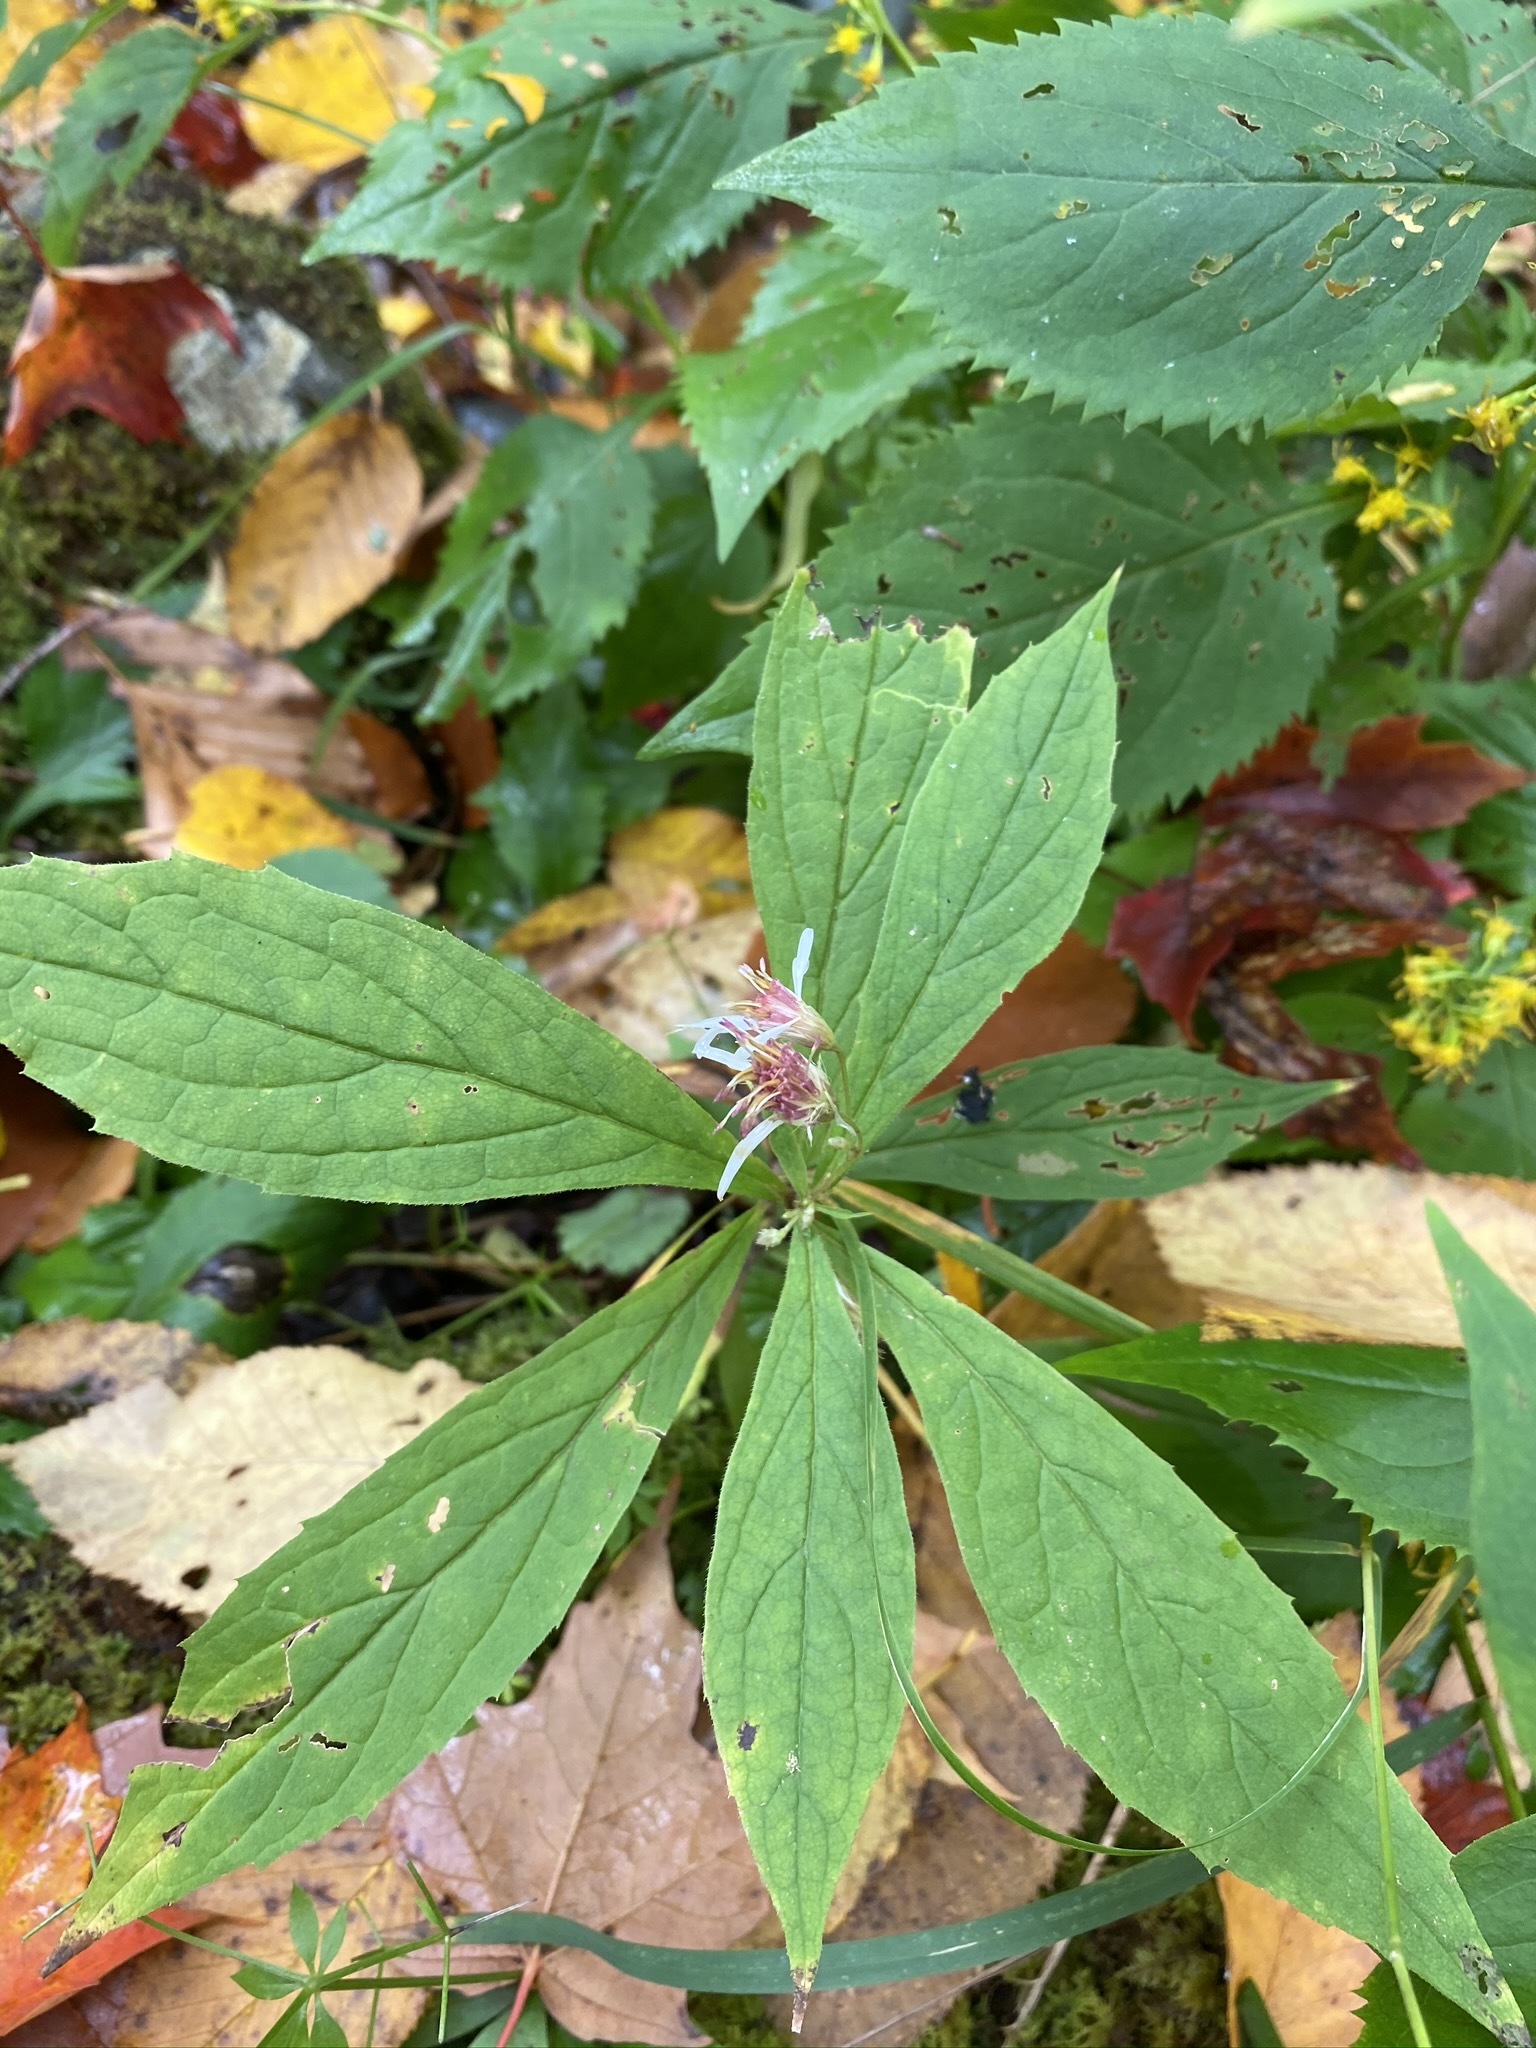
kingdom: Plantae
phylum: Tracheophyta
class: Magnoliopsida
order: Asterales
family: Asteraceae
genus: Oclemena
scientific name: Oclemena acuminata
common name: Mountain aster
